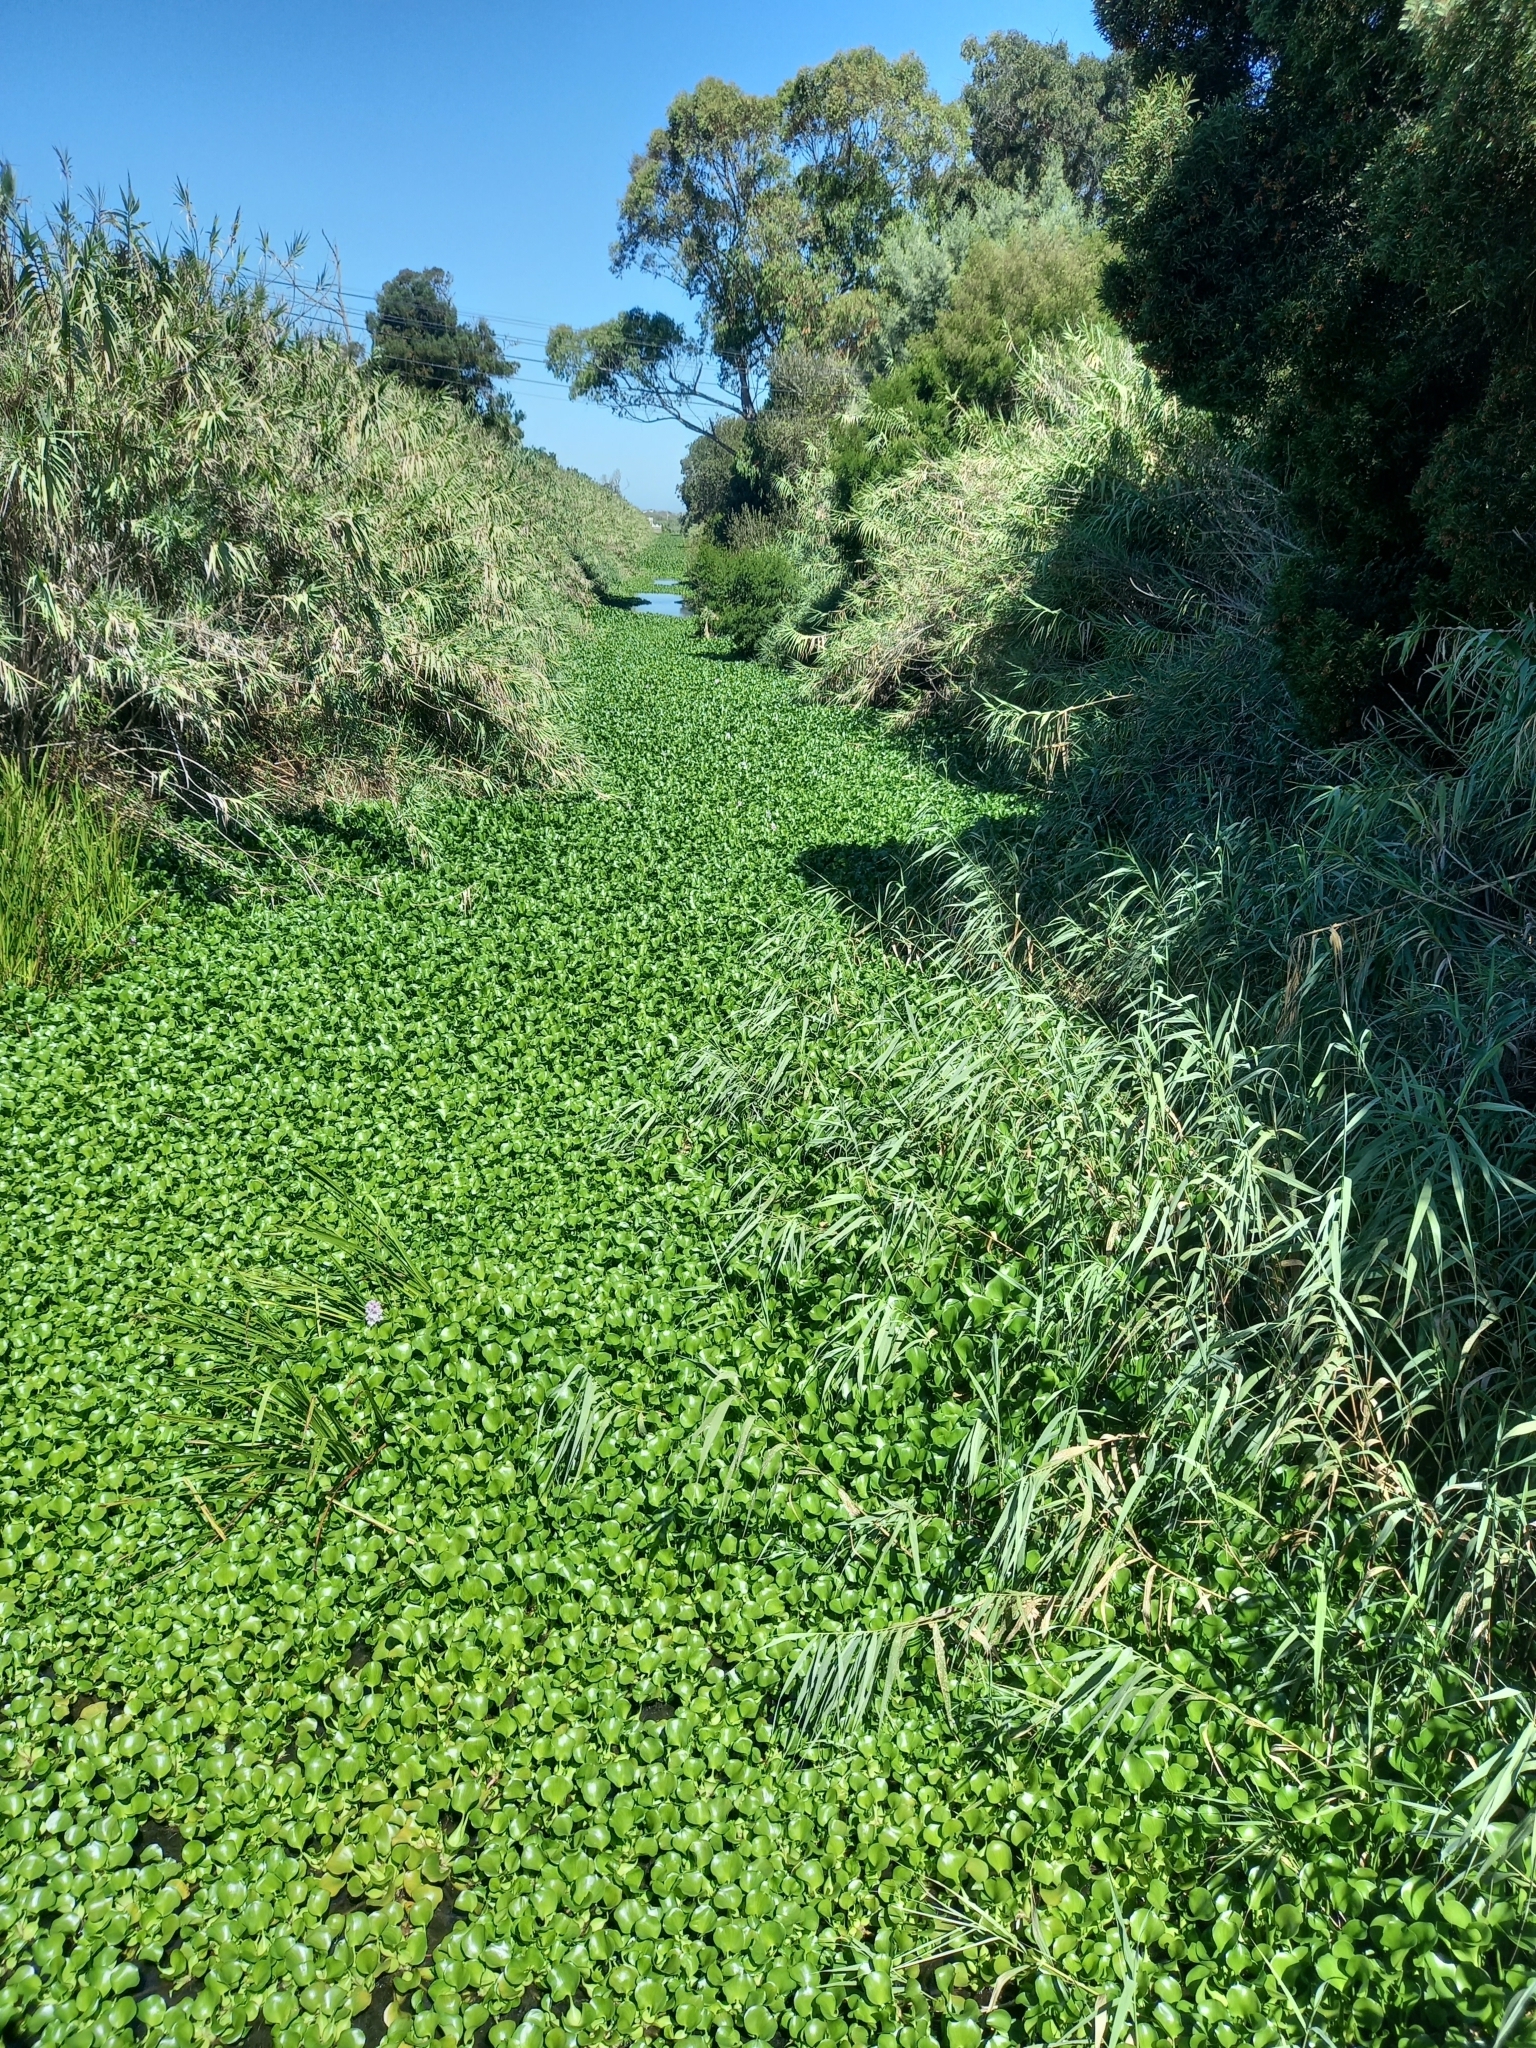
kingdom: Plantae
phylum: Tracheophyta
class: Liliopsida
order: Commelinales
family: Pontederiaceae
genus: Pontederia
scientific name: Pontederia crassipes
